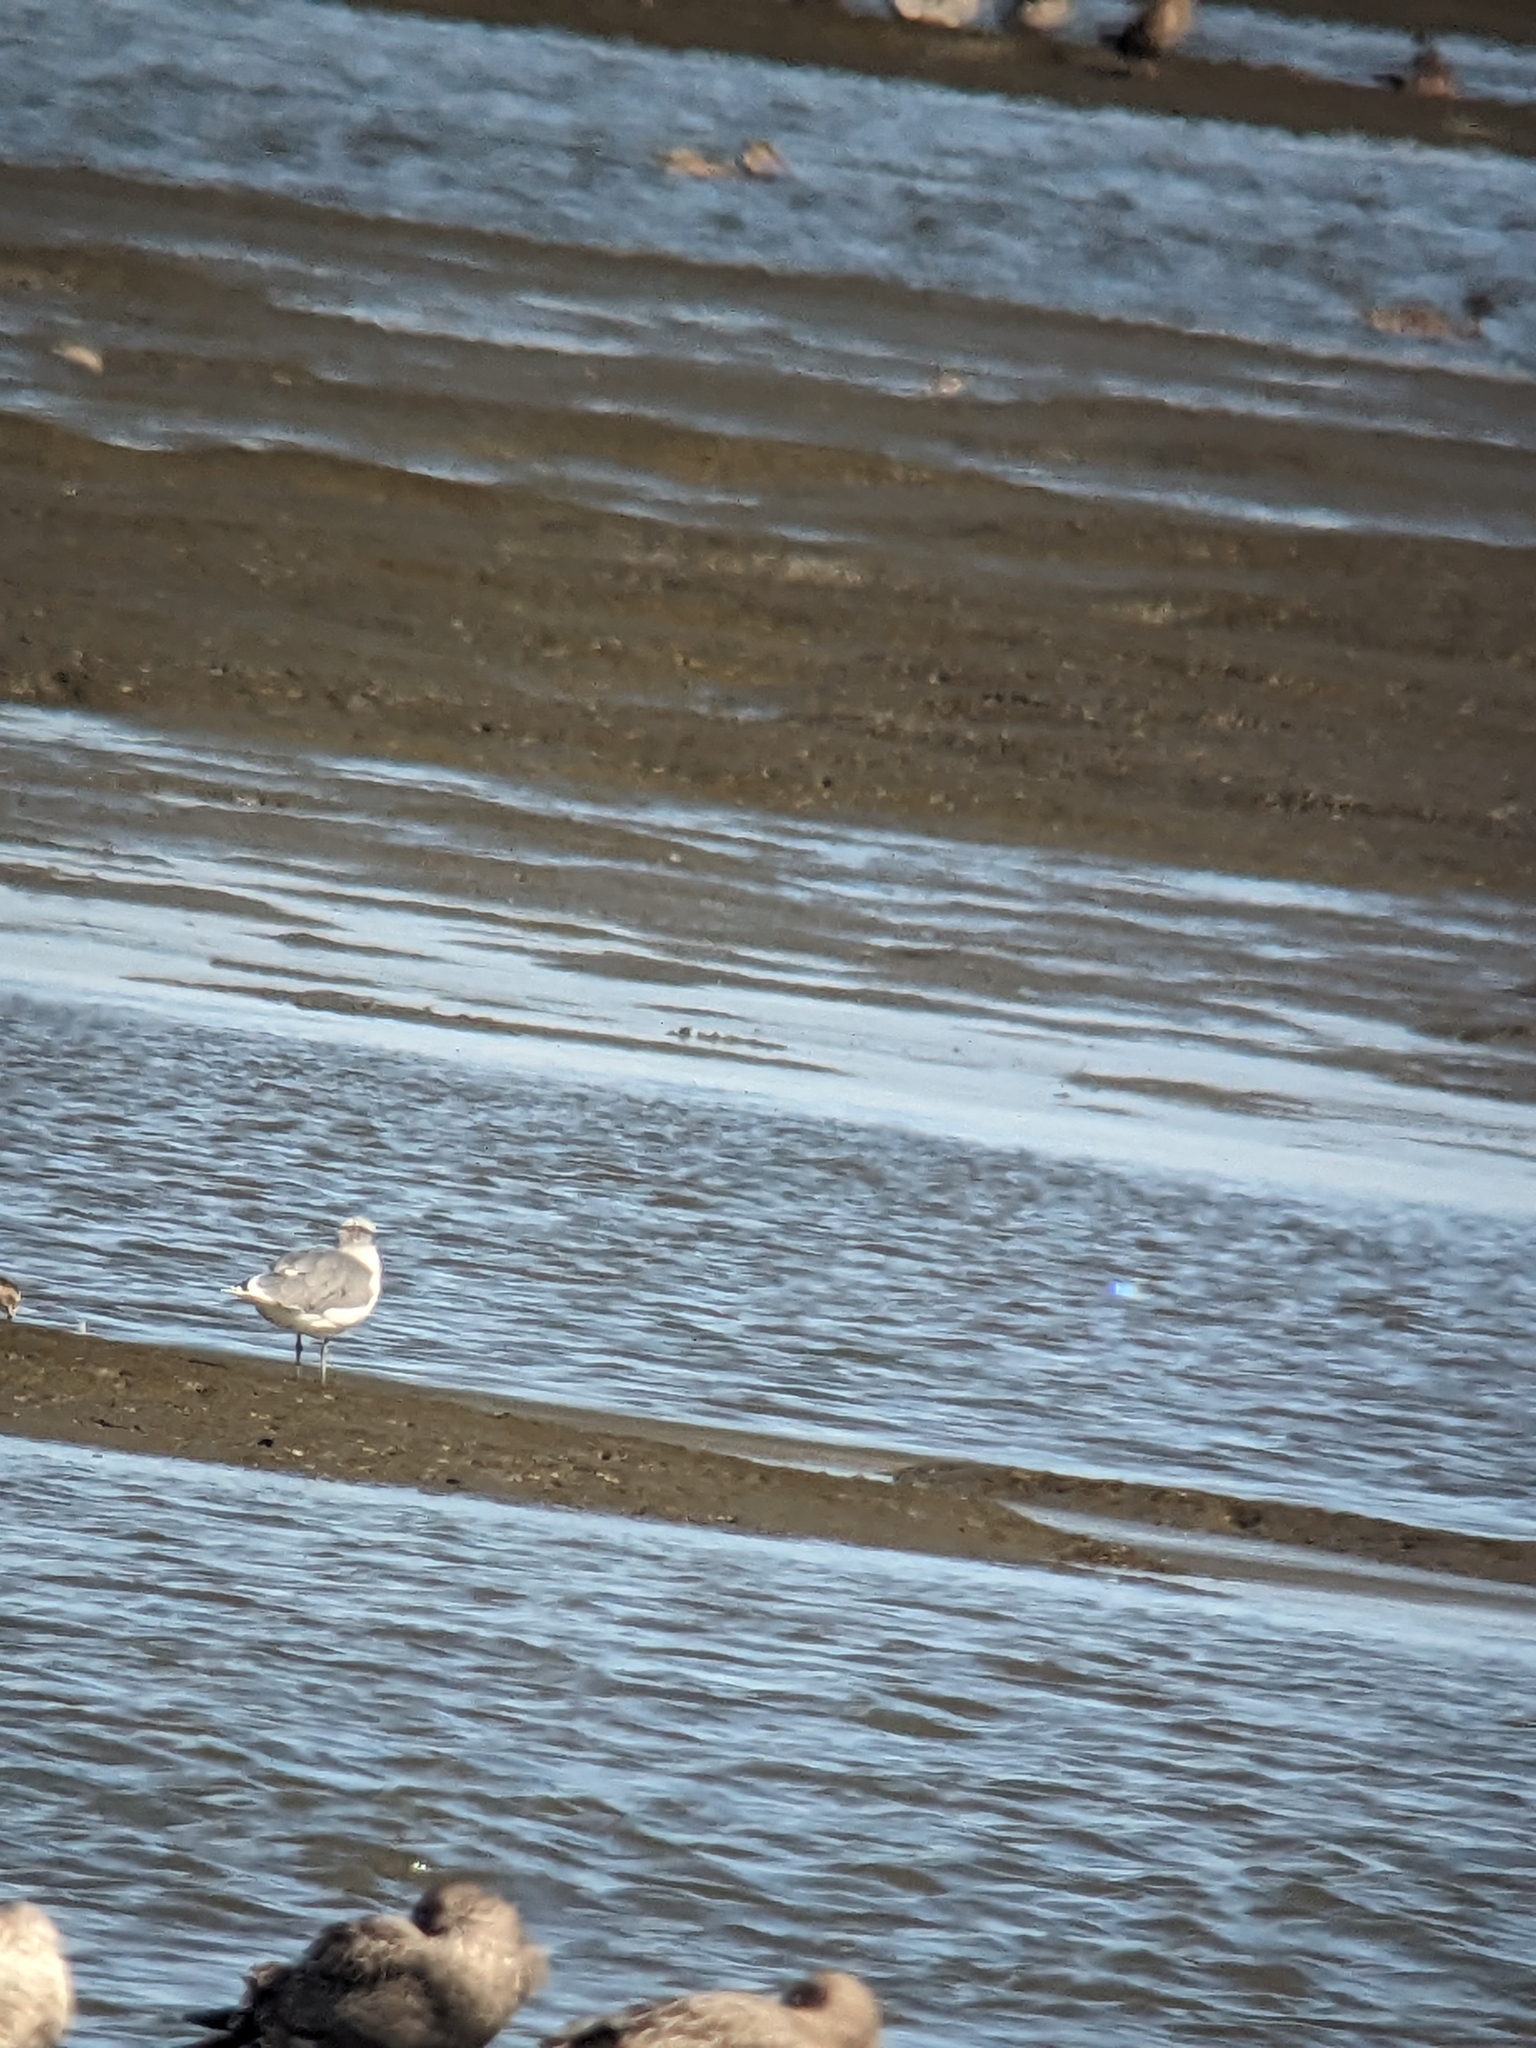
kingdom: Animalia
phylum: Chordata
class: Aves
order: Charadriiformes
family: Laridae
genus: Leucophaeus
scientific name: Leucophaeus pipixcan
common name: Franklin's gull
